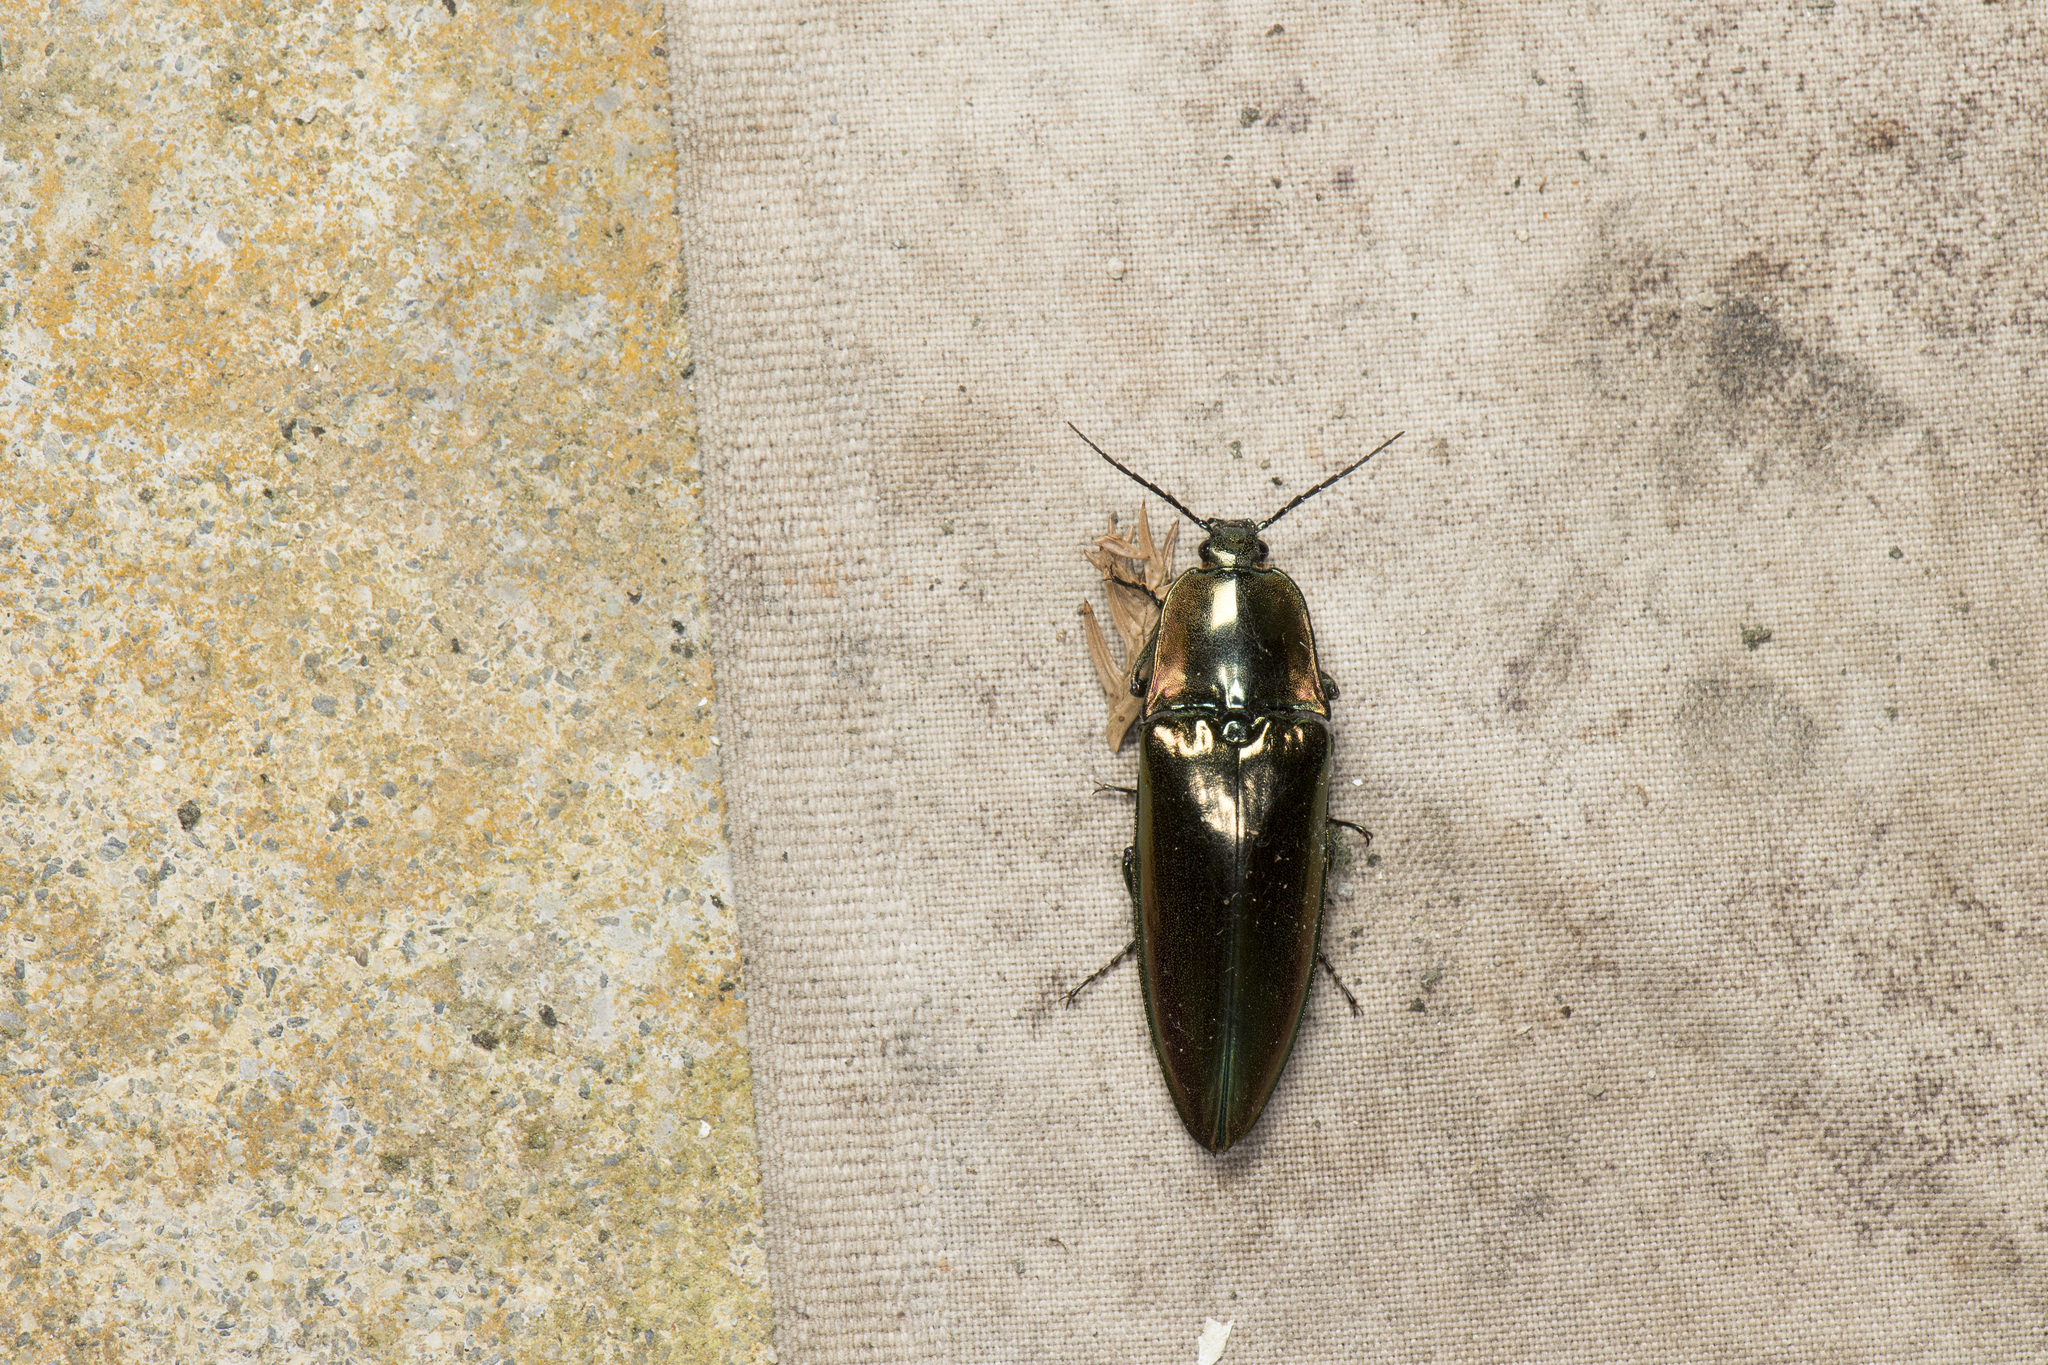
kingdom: Animalia
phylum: Arthropoda
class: Insecta
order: Coleoptera
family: Elateridae
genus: Campsosternus
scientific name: Campsosternus auratus
